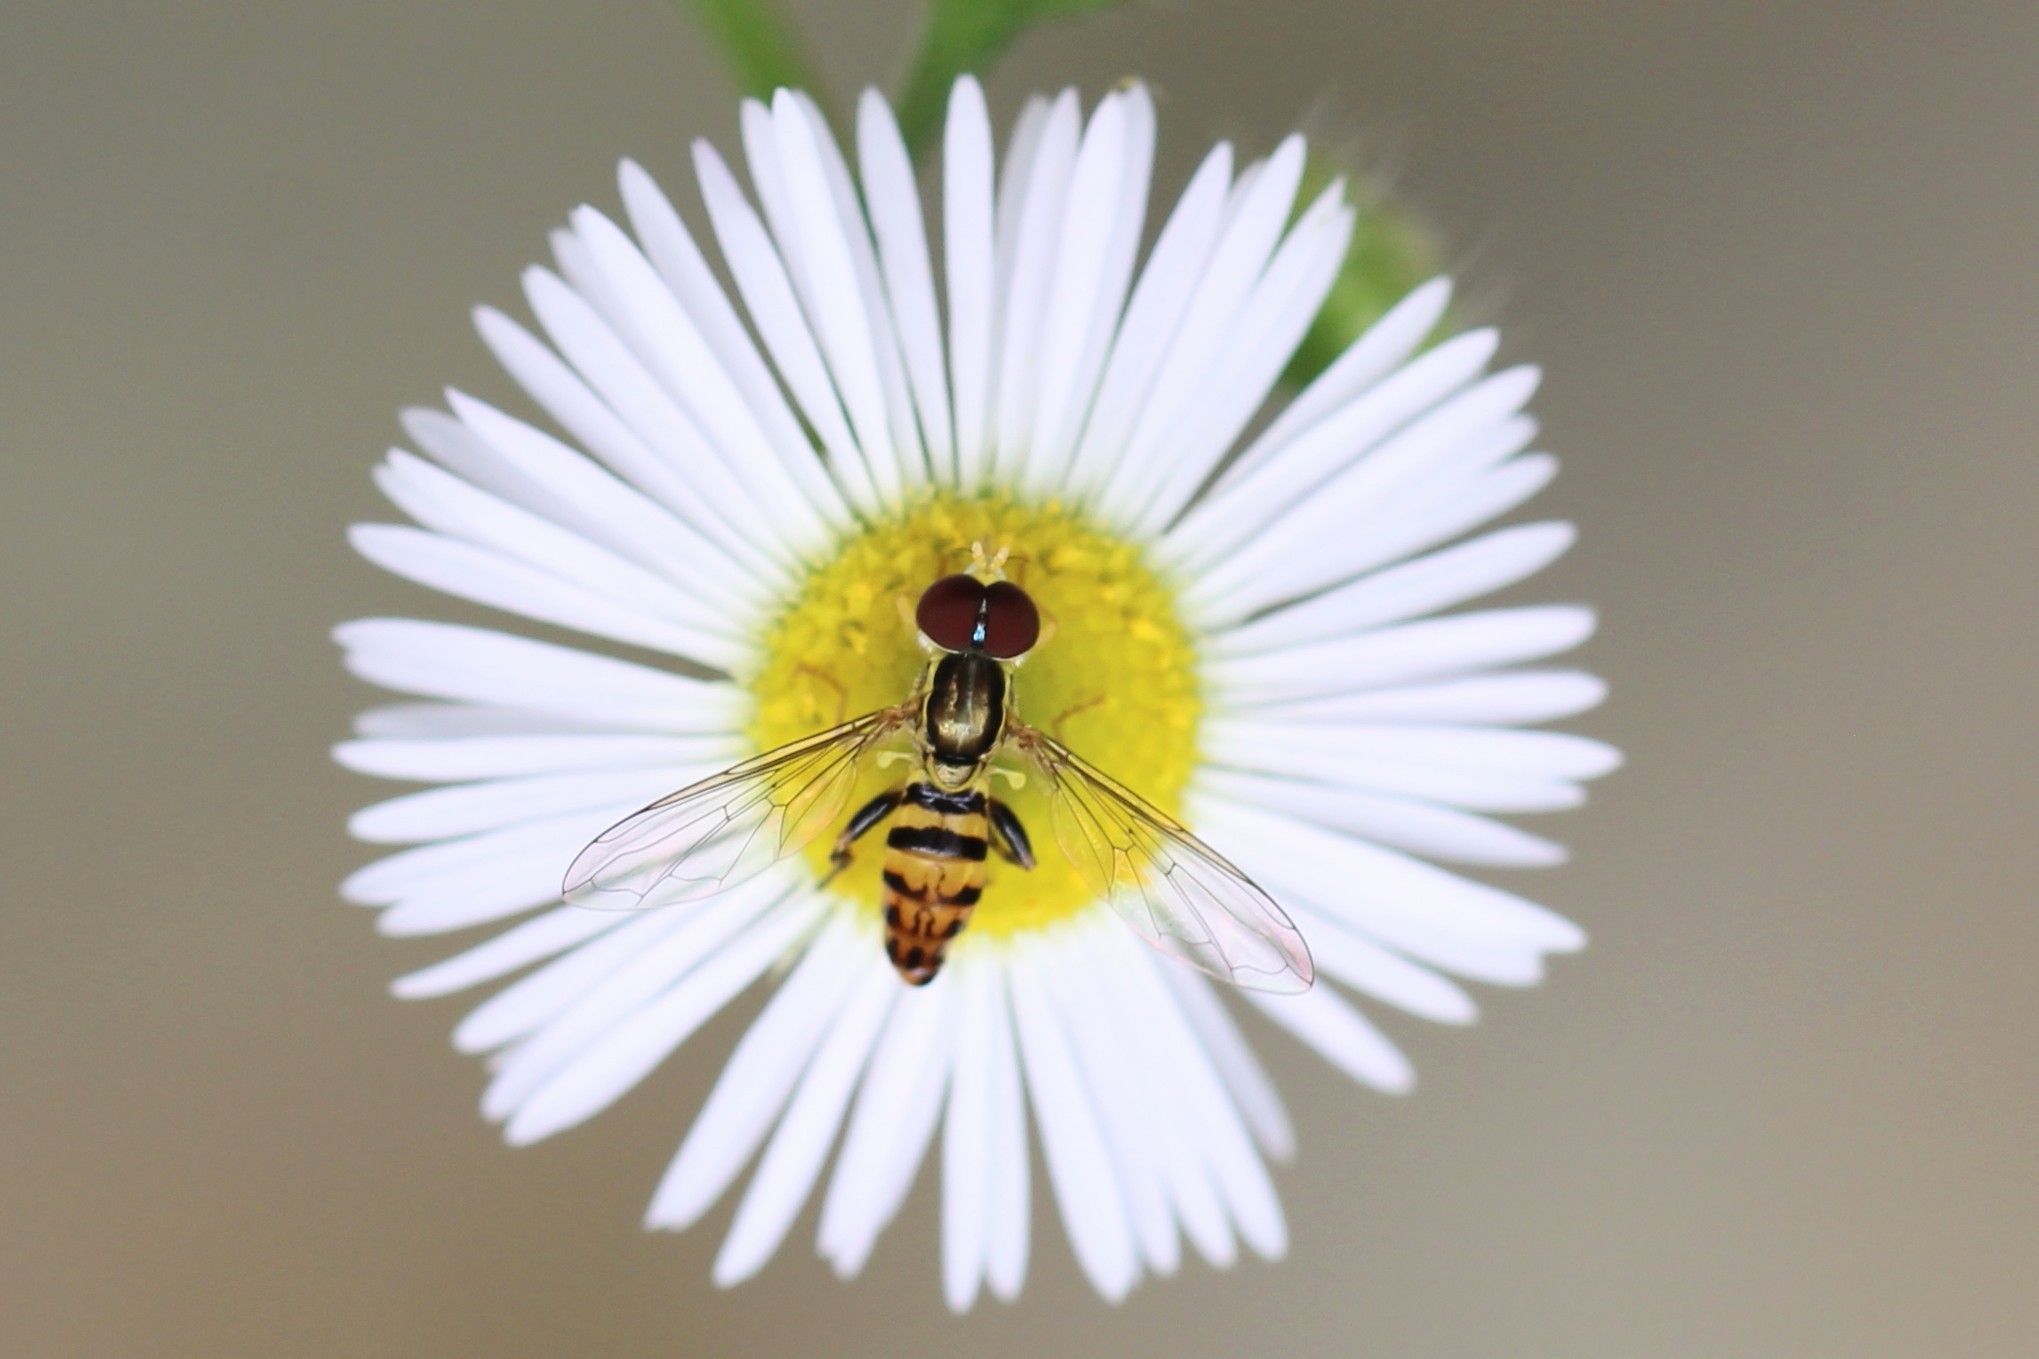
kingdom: Animalia
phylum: Arthropoda
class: Insecta
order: Diptera
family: Syrphidae
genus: Toxomerus
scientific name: Toxomerus geminatus
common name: Eastern calligrapher
